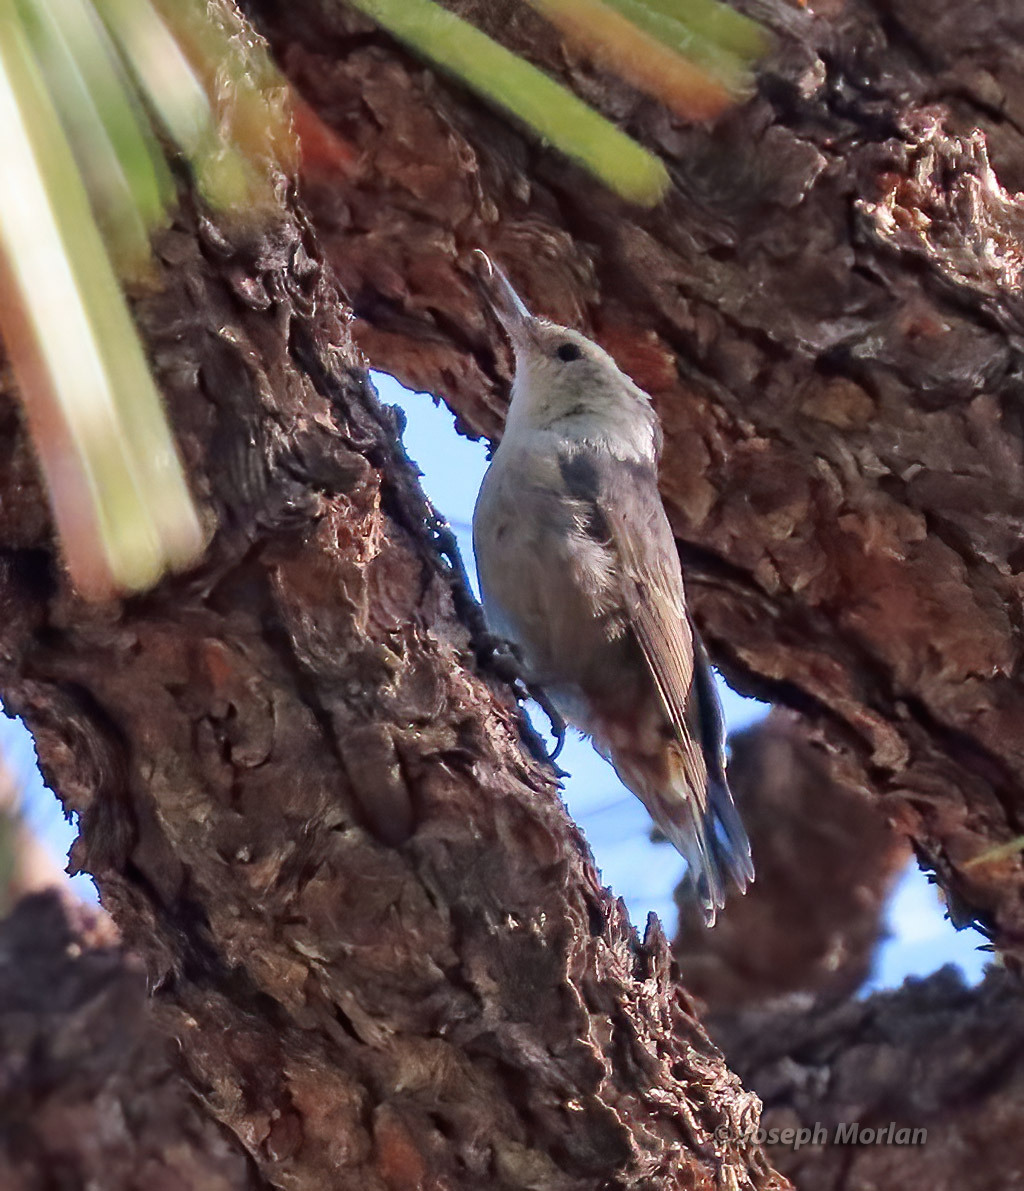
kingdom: Animalia
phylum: Chordata
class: Aves
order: Passeriformes
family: Sittidae
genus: Sitta
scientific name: Sitta carolinensis
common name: White-breasted nuthatch
